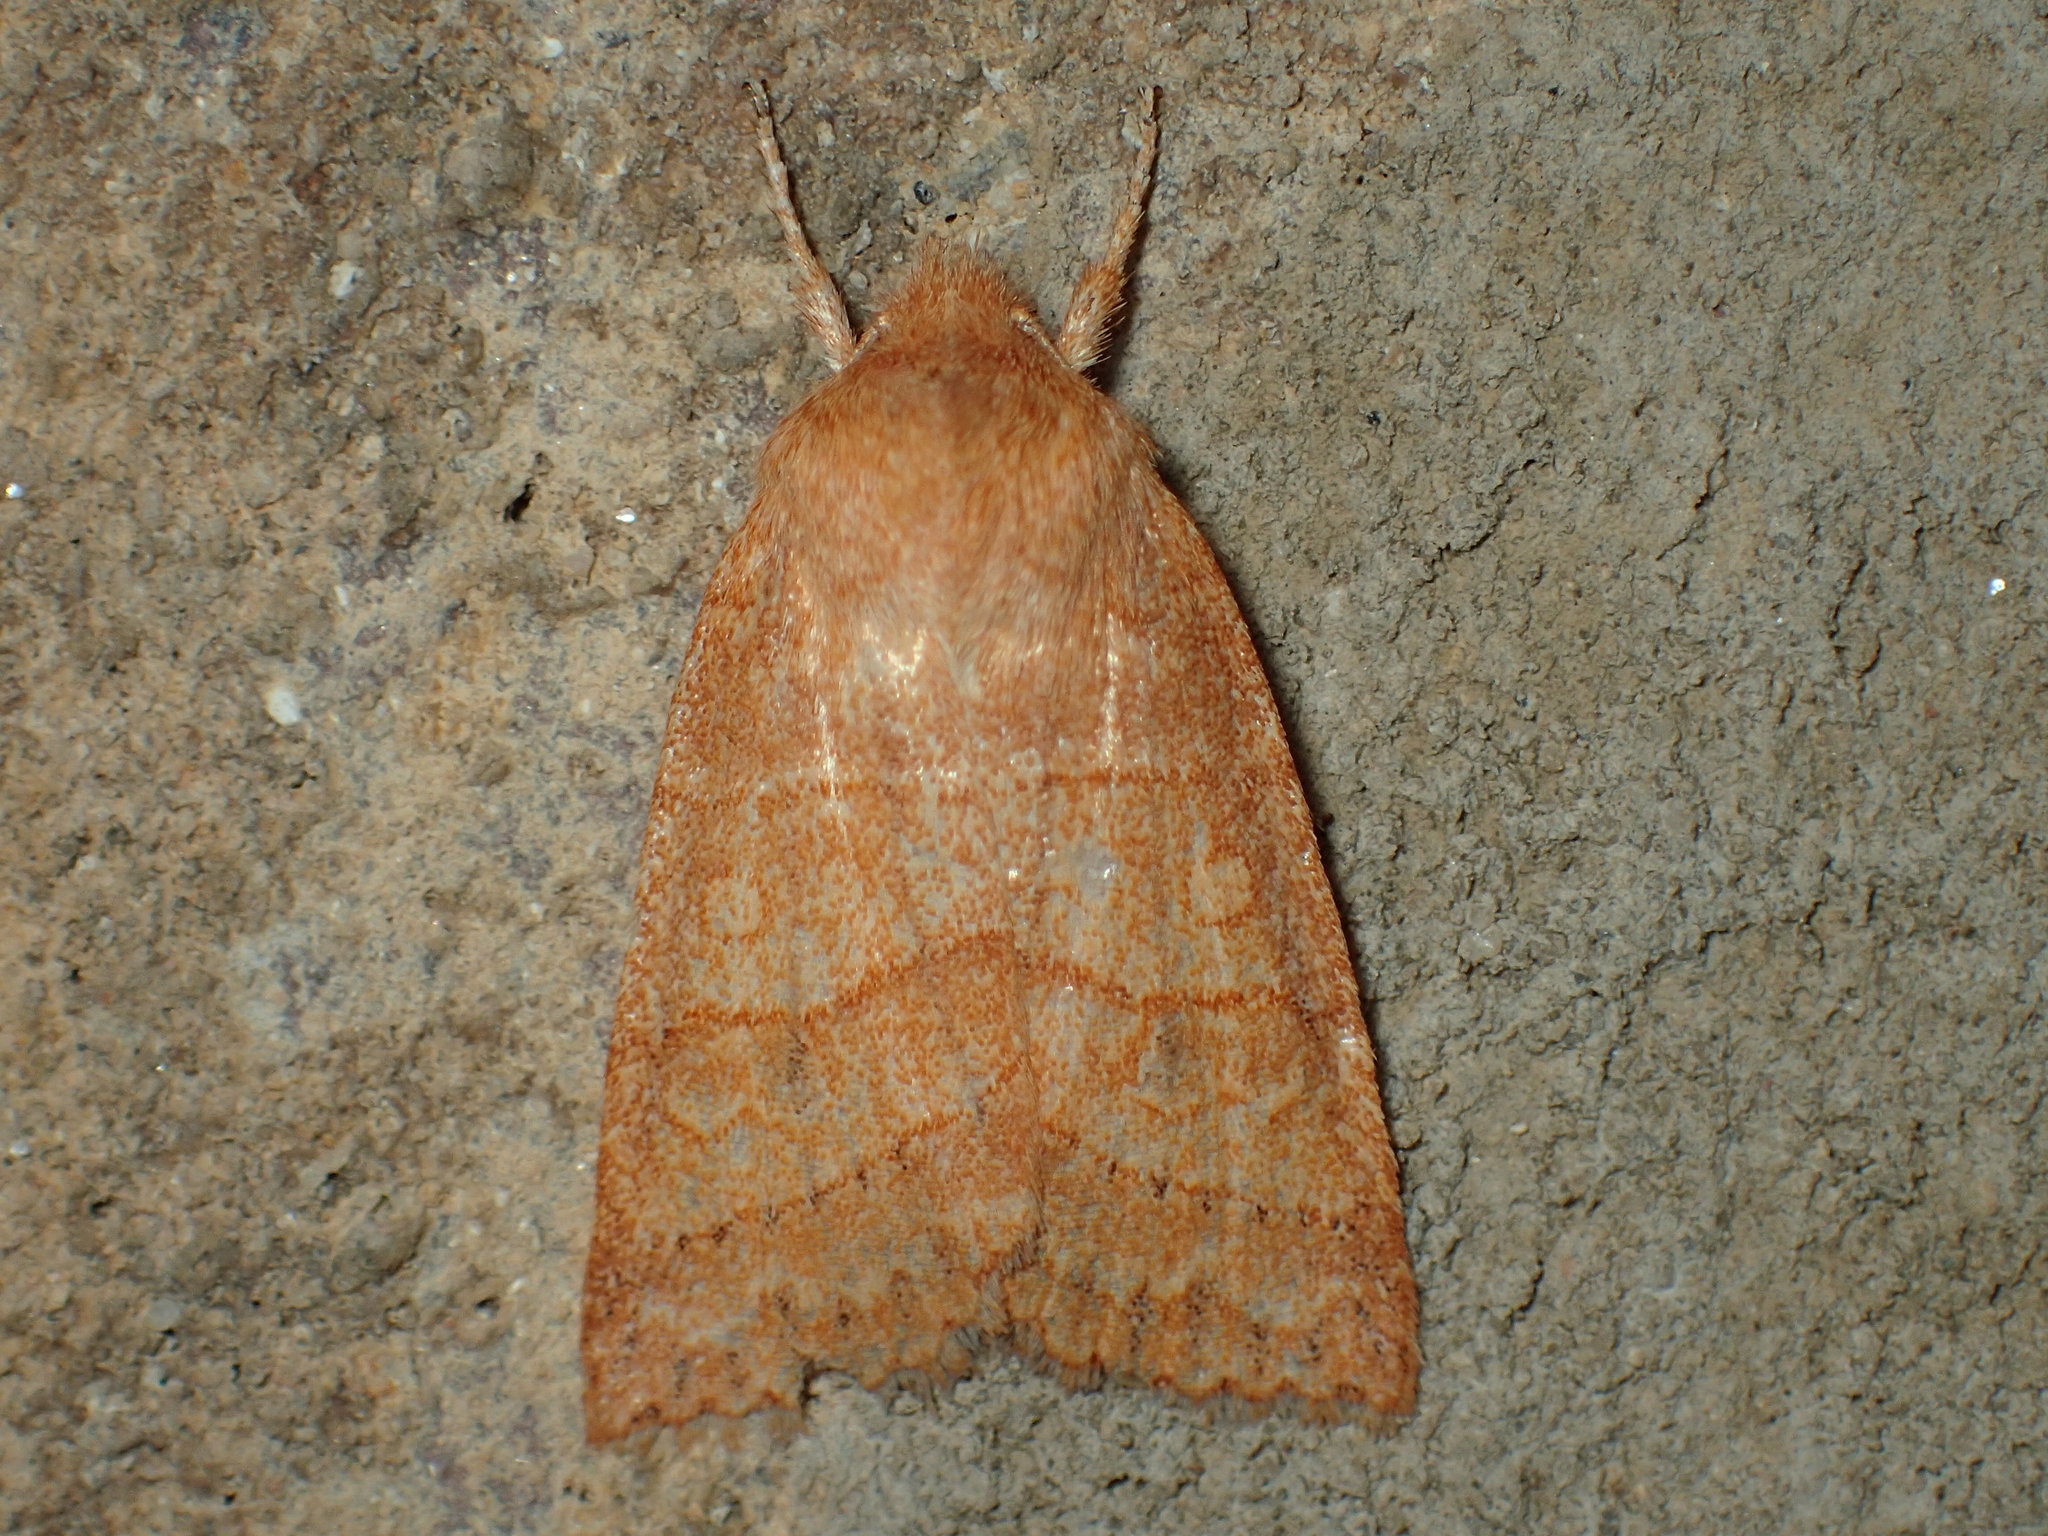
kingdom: Animalia
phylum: Arthropoda
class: Insecta
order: Lepidoptera
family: Noctuidae
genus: Pyreferra
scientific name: Pyreferra pettiti
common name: Pettit's sallow
